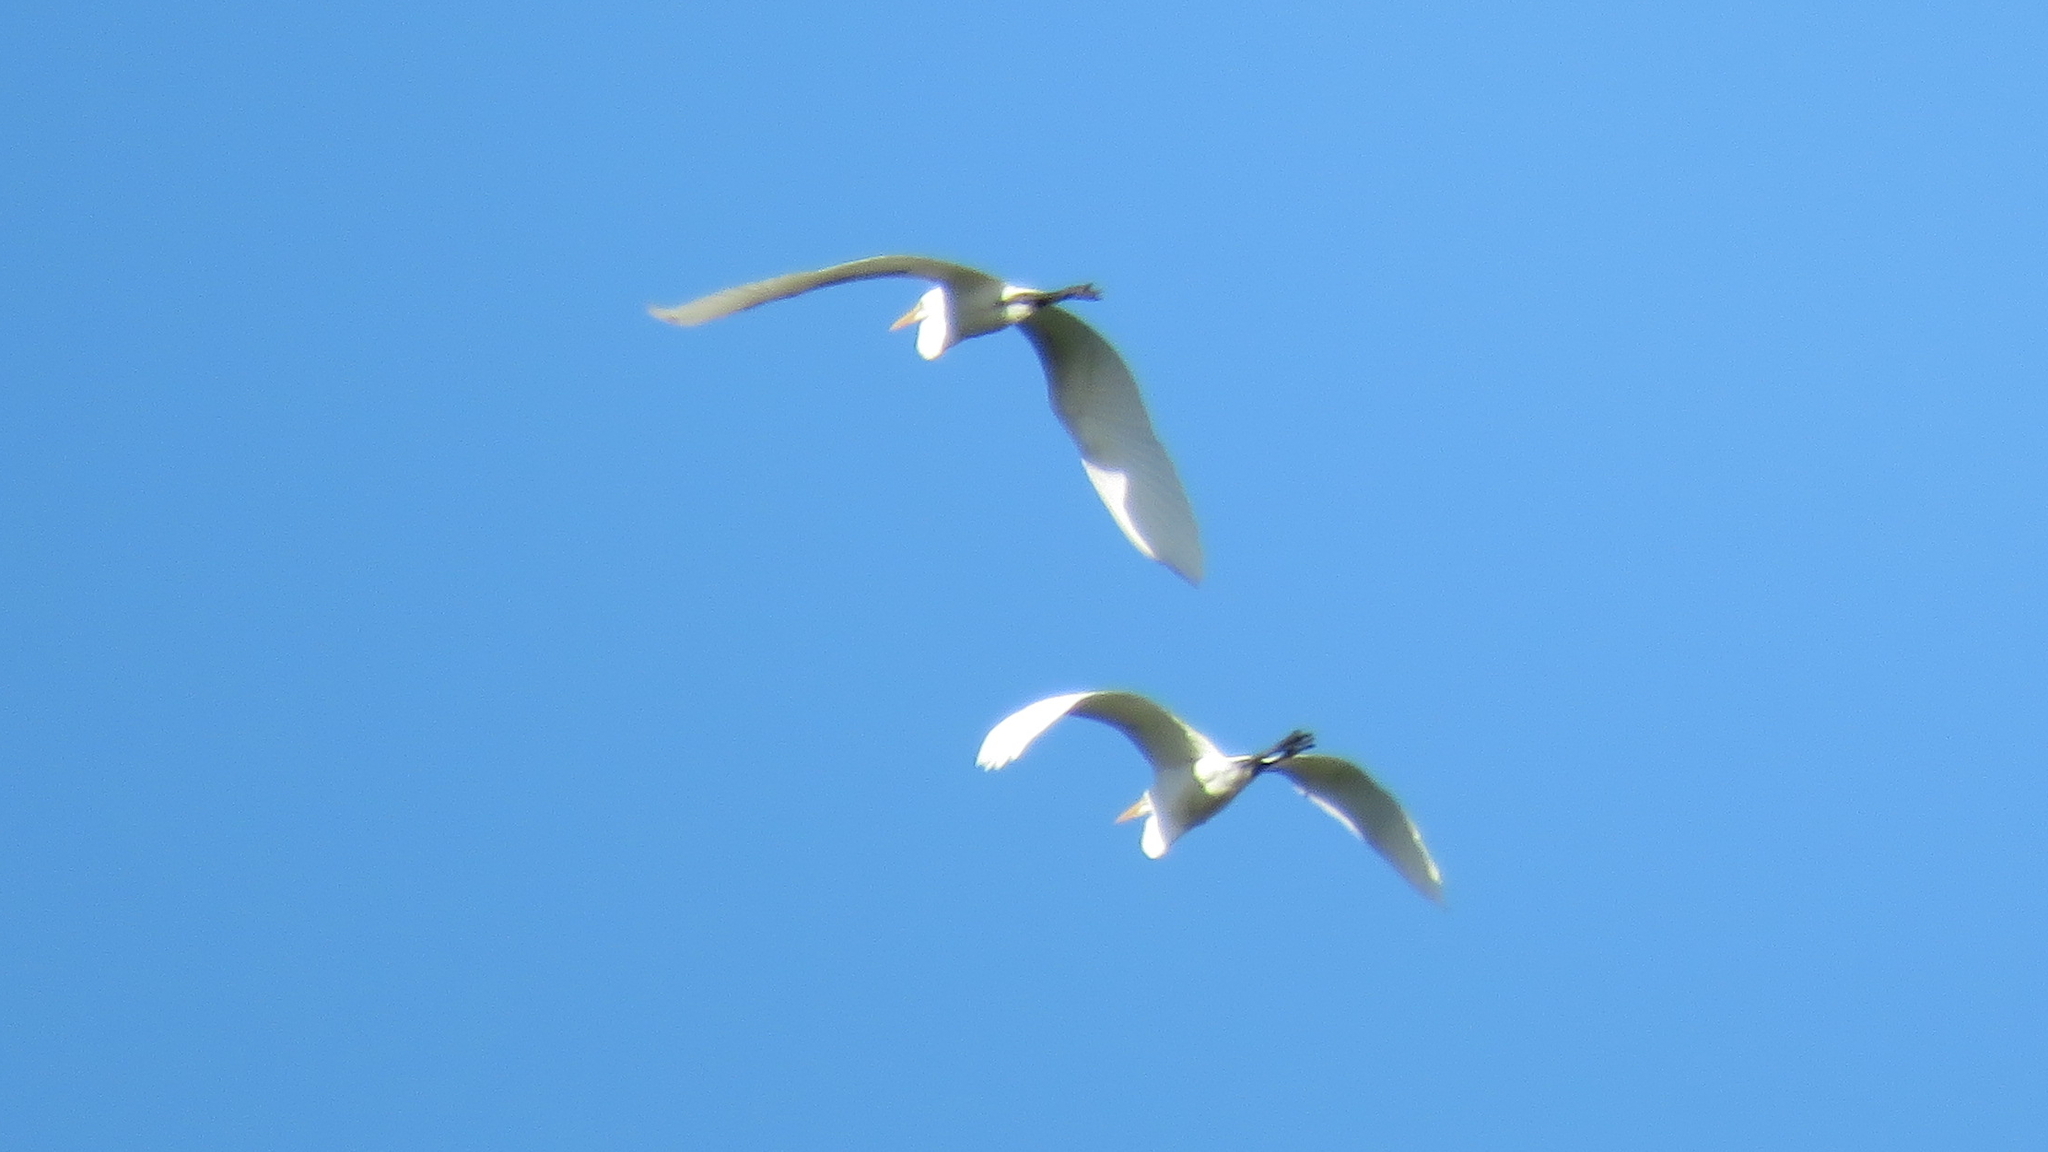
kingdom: Animalia
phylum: Chordata
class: Aves
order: Pelecaniformes
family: Ardeidae
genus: Ardea
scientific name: Ardea alba
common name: Great egret
